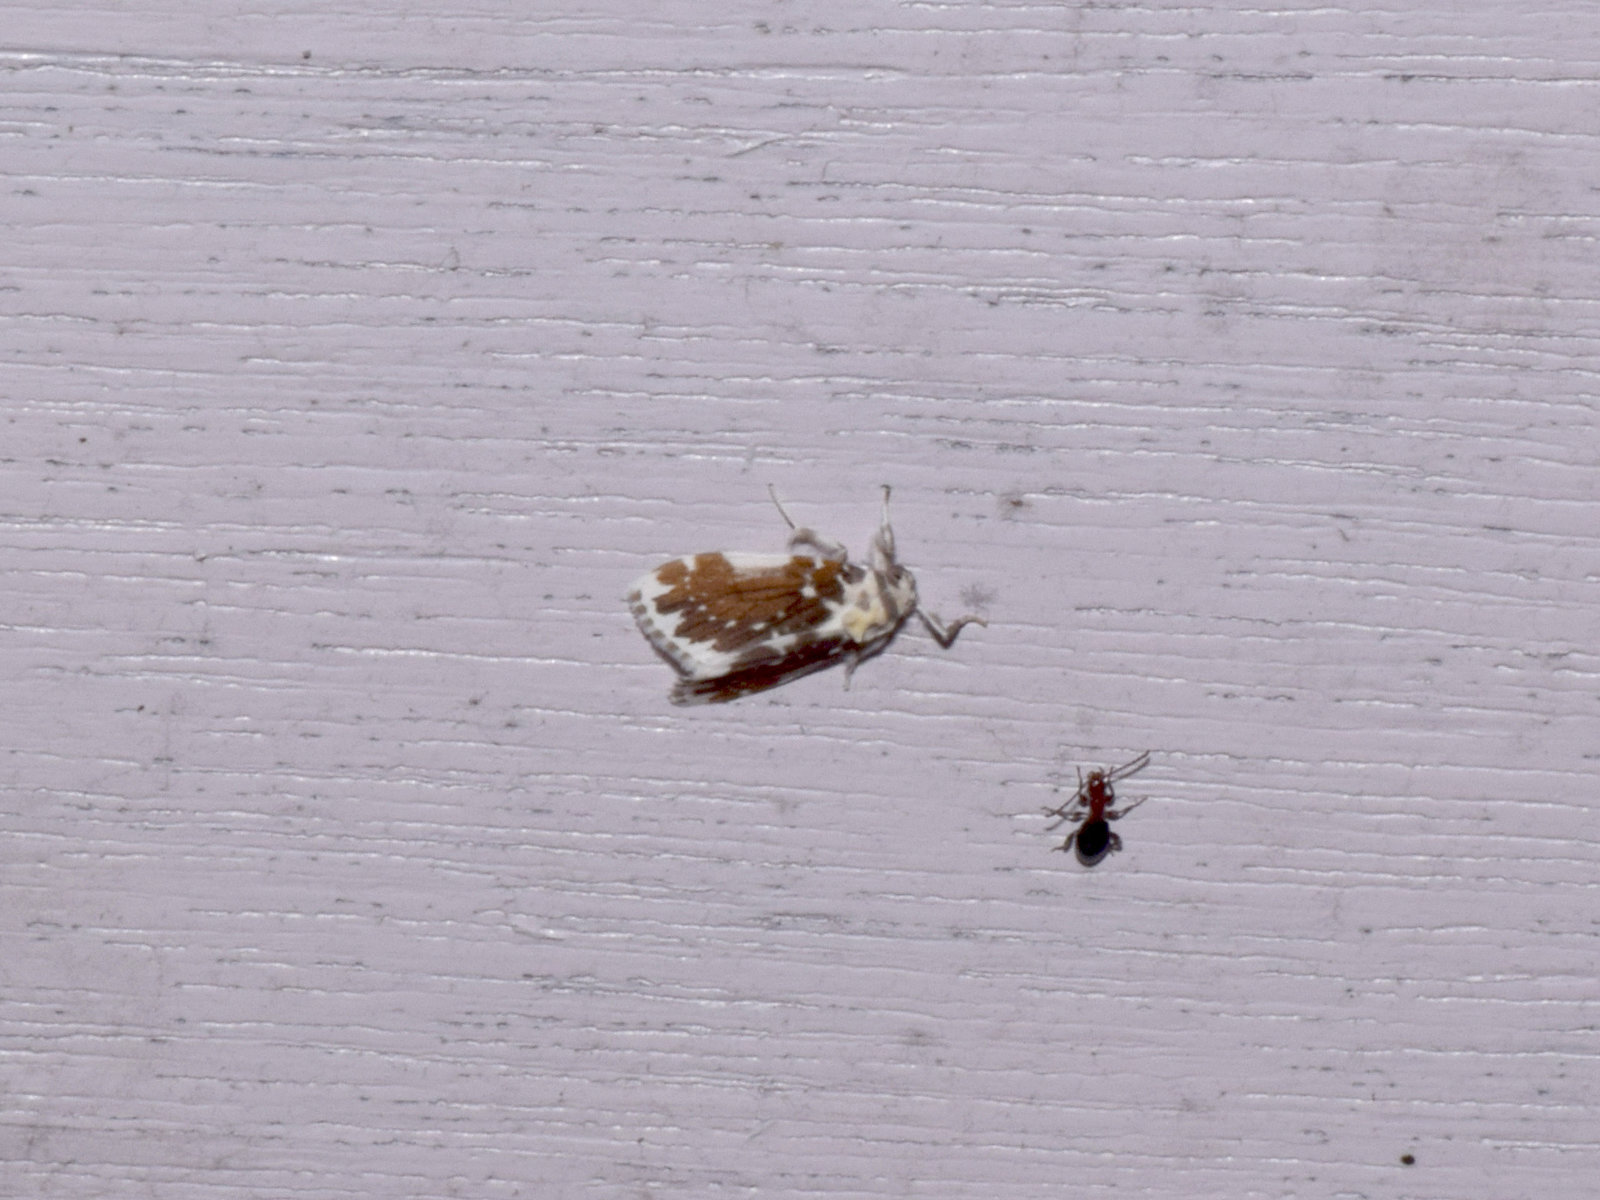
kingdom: Animalia
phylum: Arthropoda
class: Insecta
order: Lepidoptera
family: Erebidae
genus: Pseudoadites
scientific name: Pseudoadites frigida
